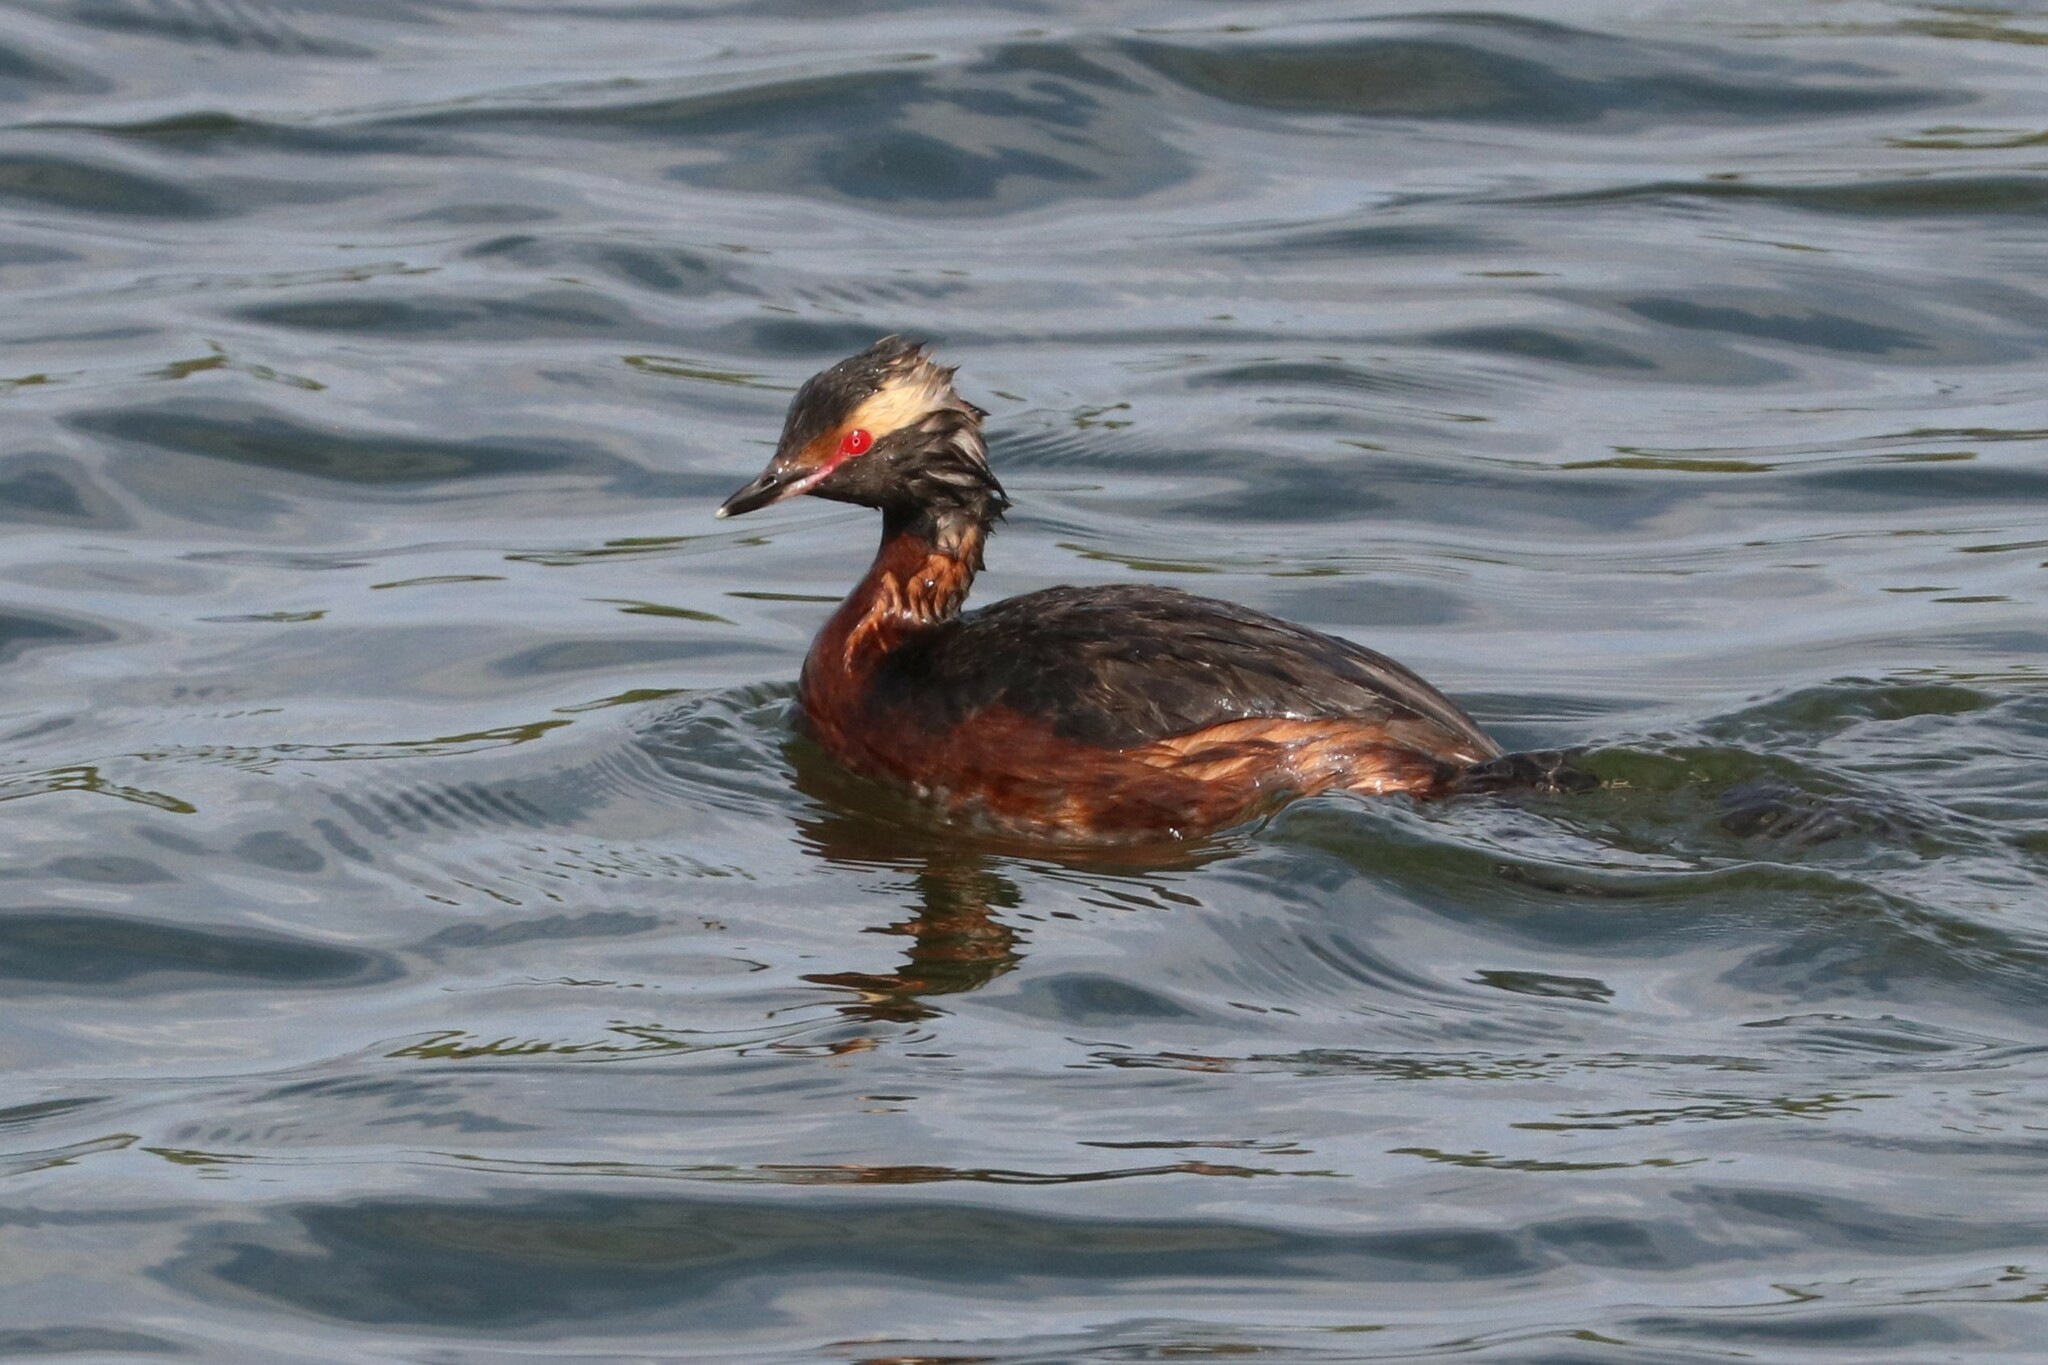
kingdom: Animalia
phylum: Chordata
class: Aves
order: Podicipediformes
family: Podicipedidae
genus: Podiceps
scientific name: Podiceps auritus
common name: Horned grebe
